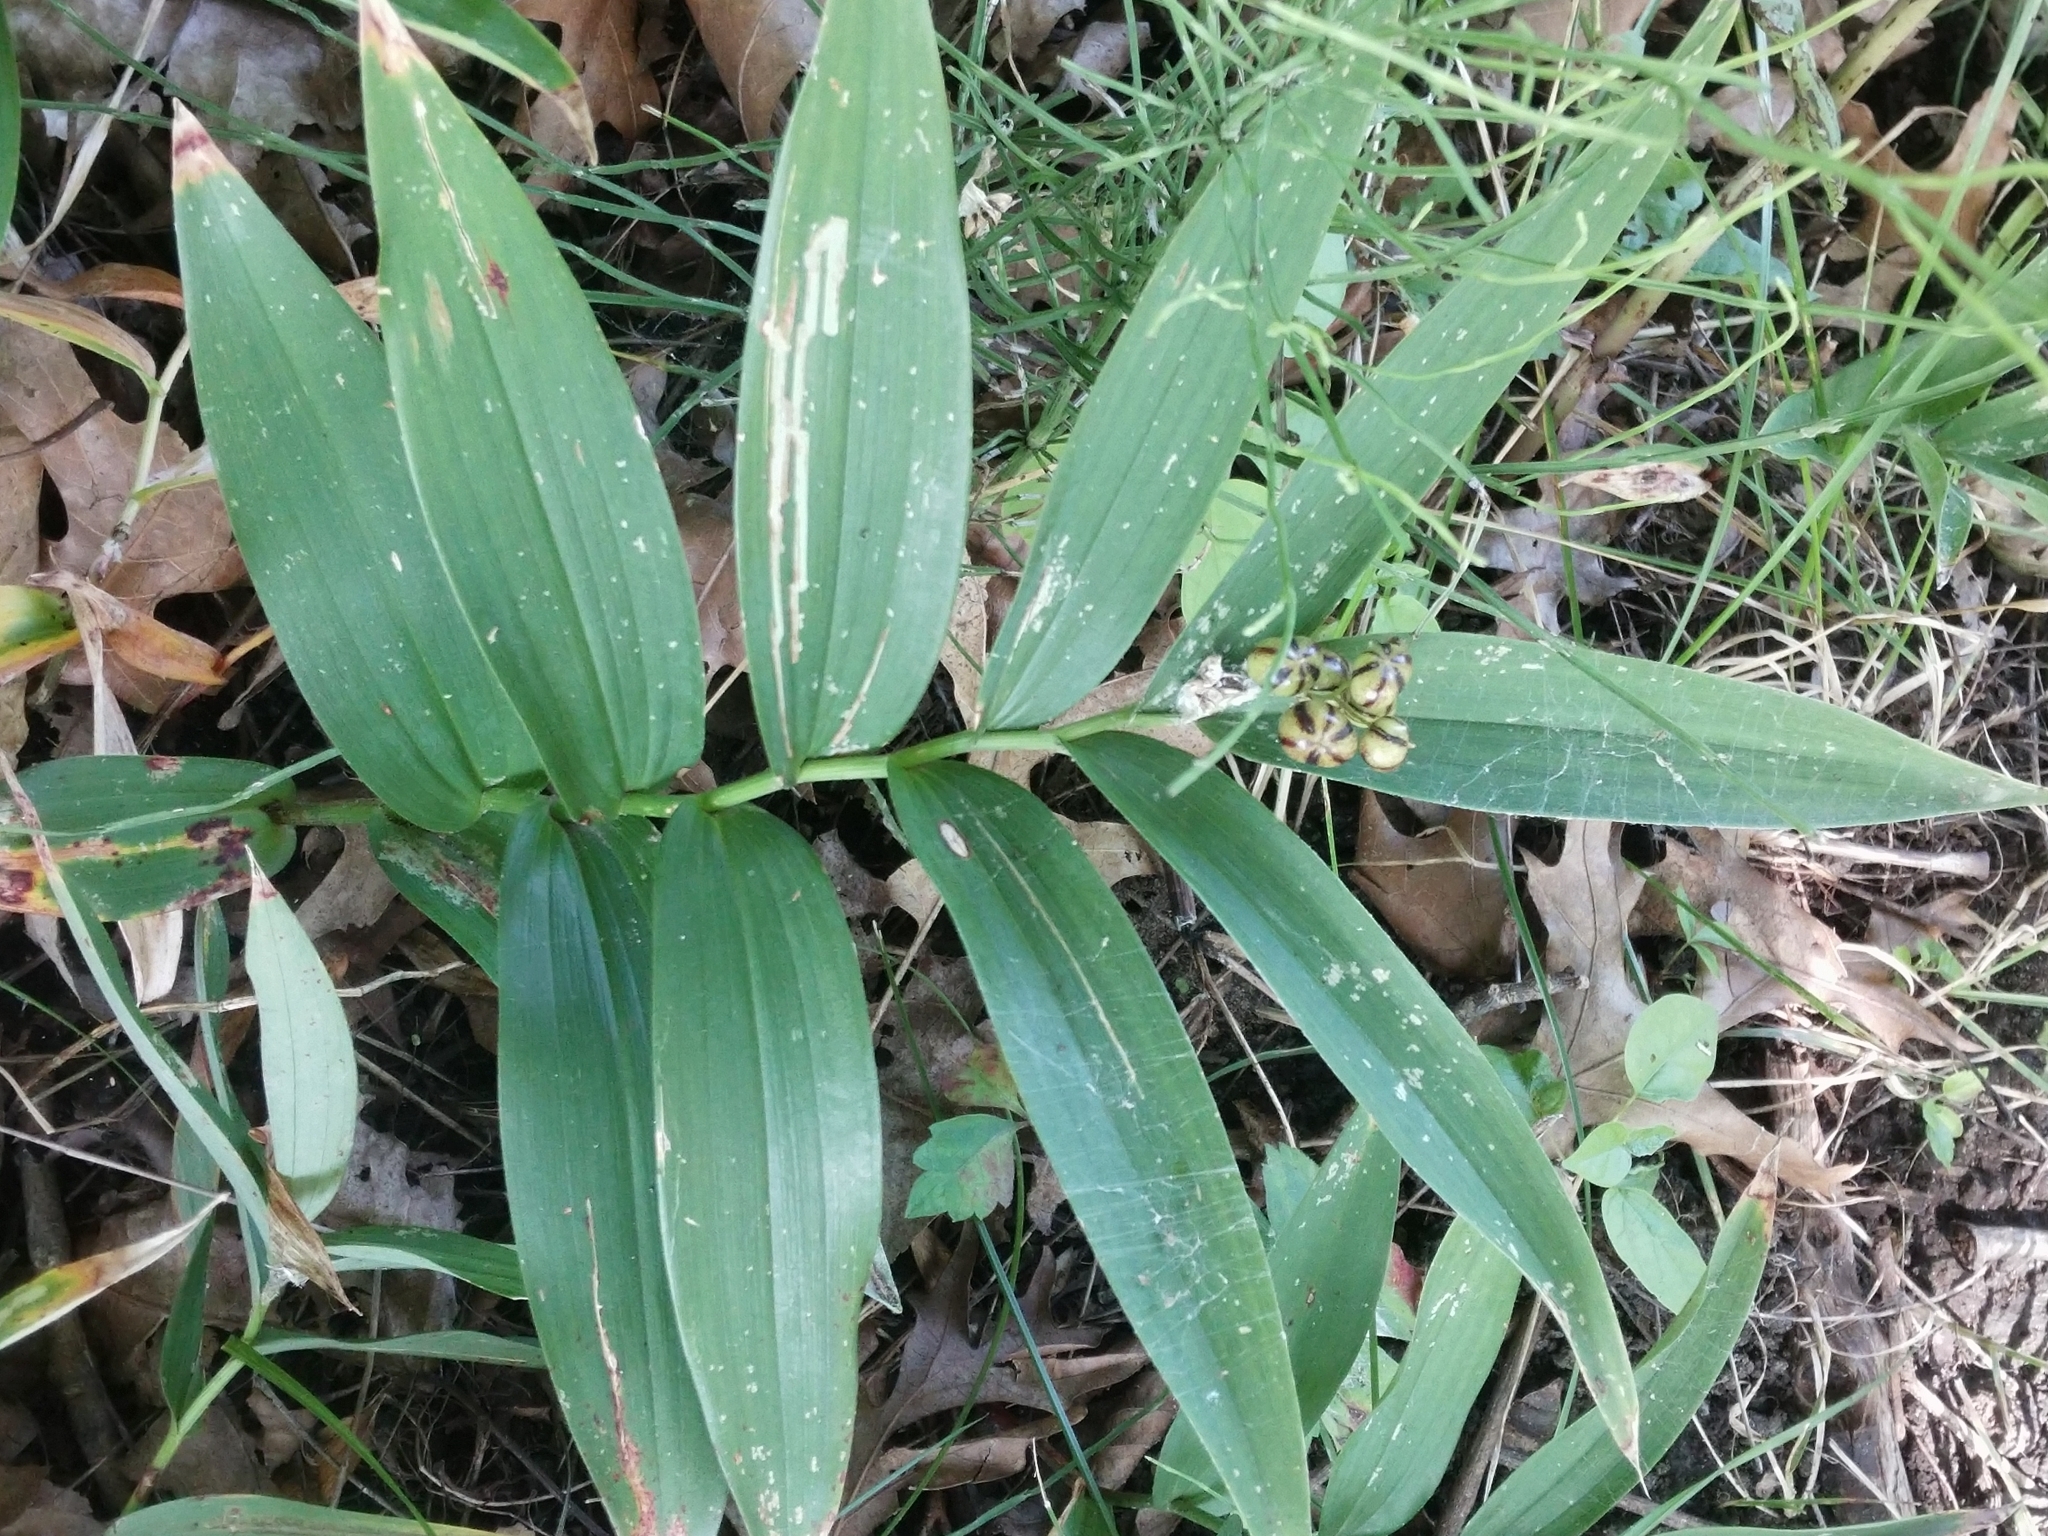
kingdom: Plantae
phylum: Tracheophyta
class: Liliopsida
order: Asparagales
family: Asparagaceae
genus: Maianthemum
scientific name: Maianthemum stellatum
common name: Little false solomon's seal
